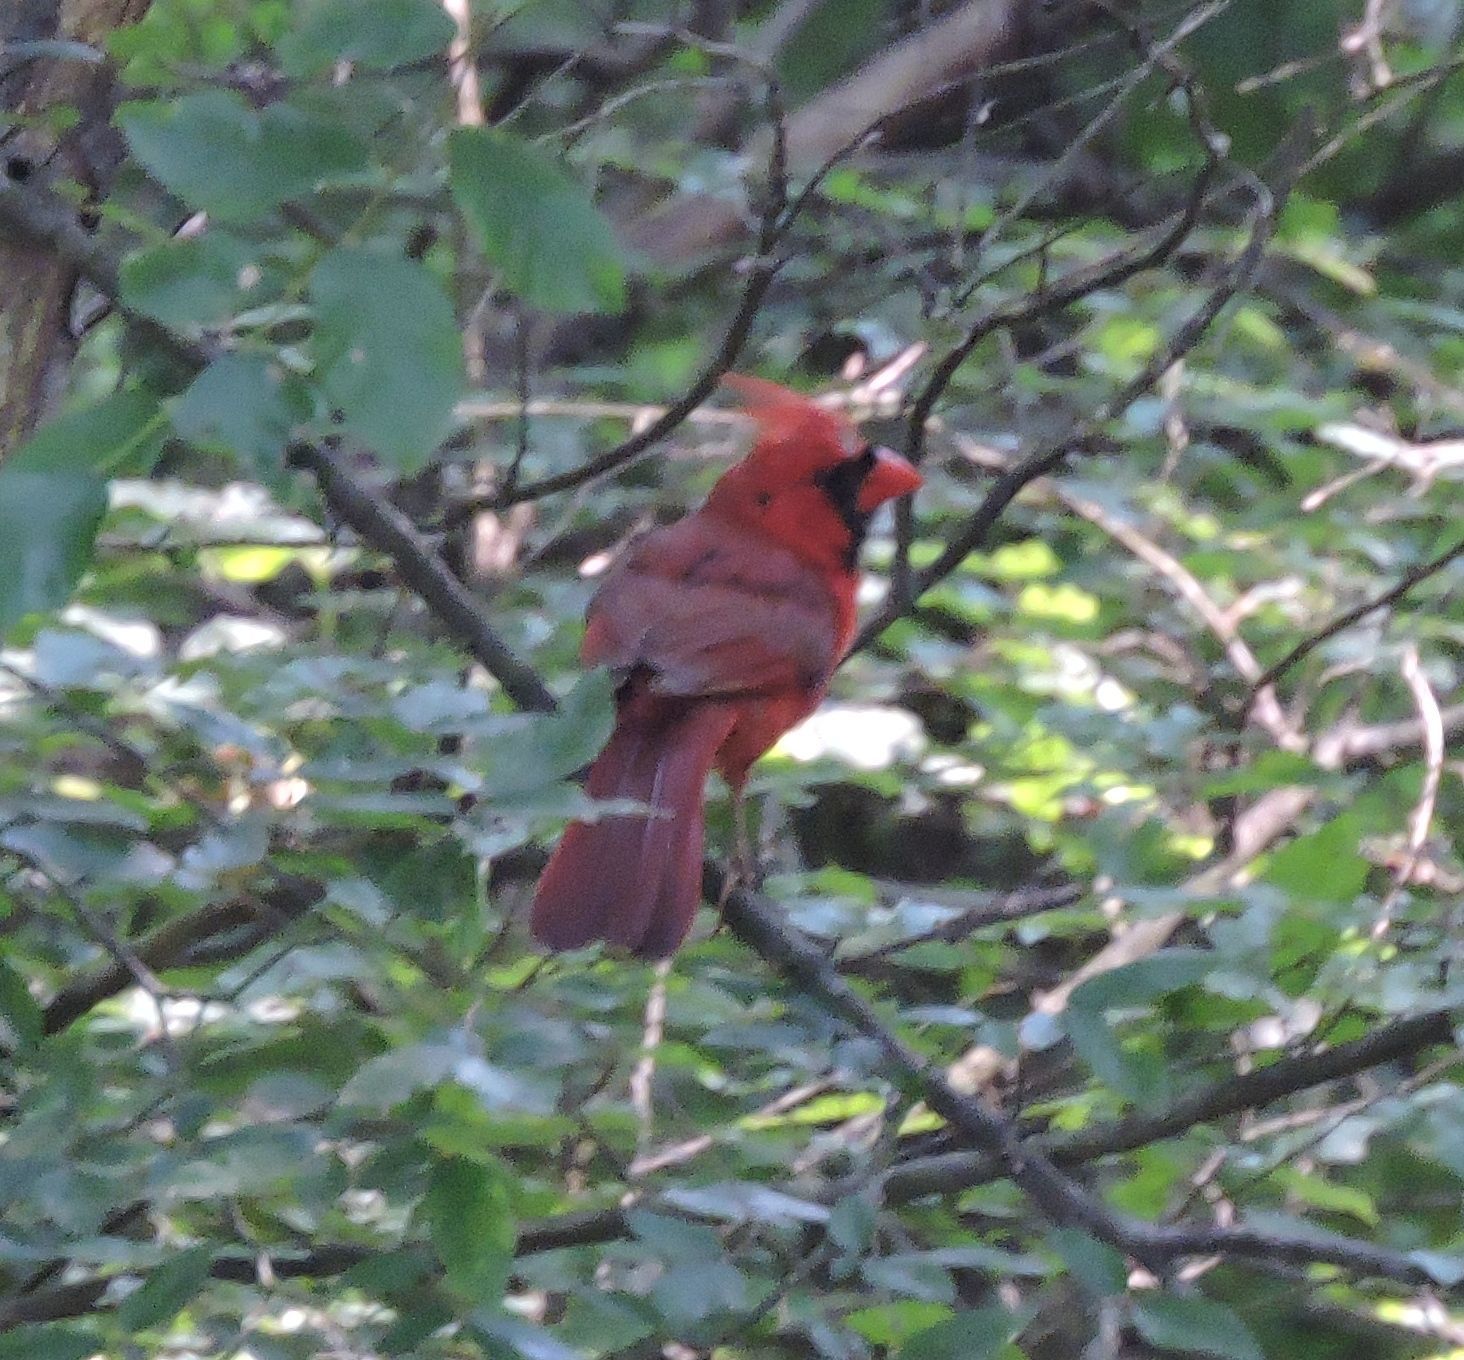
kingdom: Animalia
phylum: Chordata
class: Aves
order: Passeriformes
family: Cardinalidae
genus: Cardinalis
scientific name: Cardinalis cardinalis
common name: Northern cardinal
